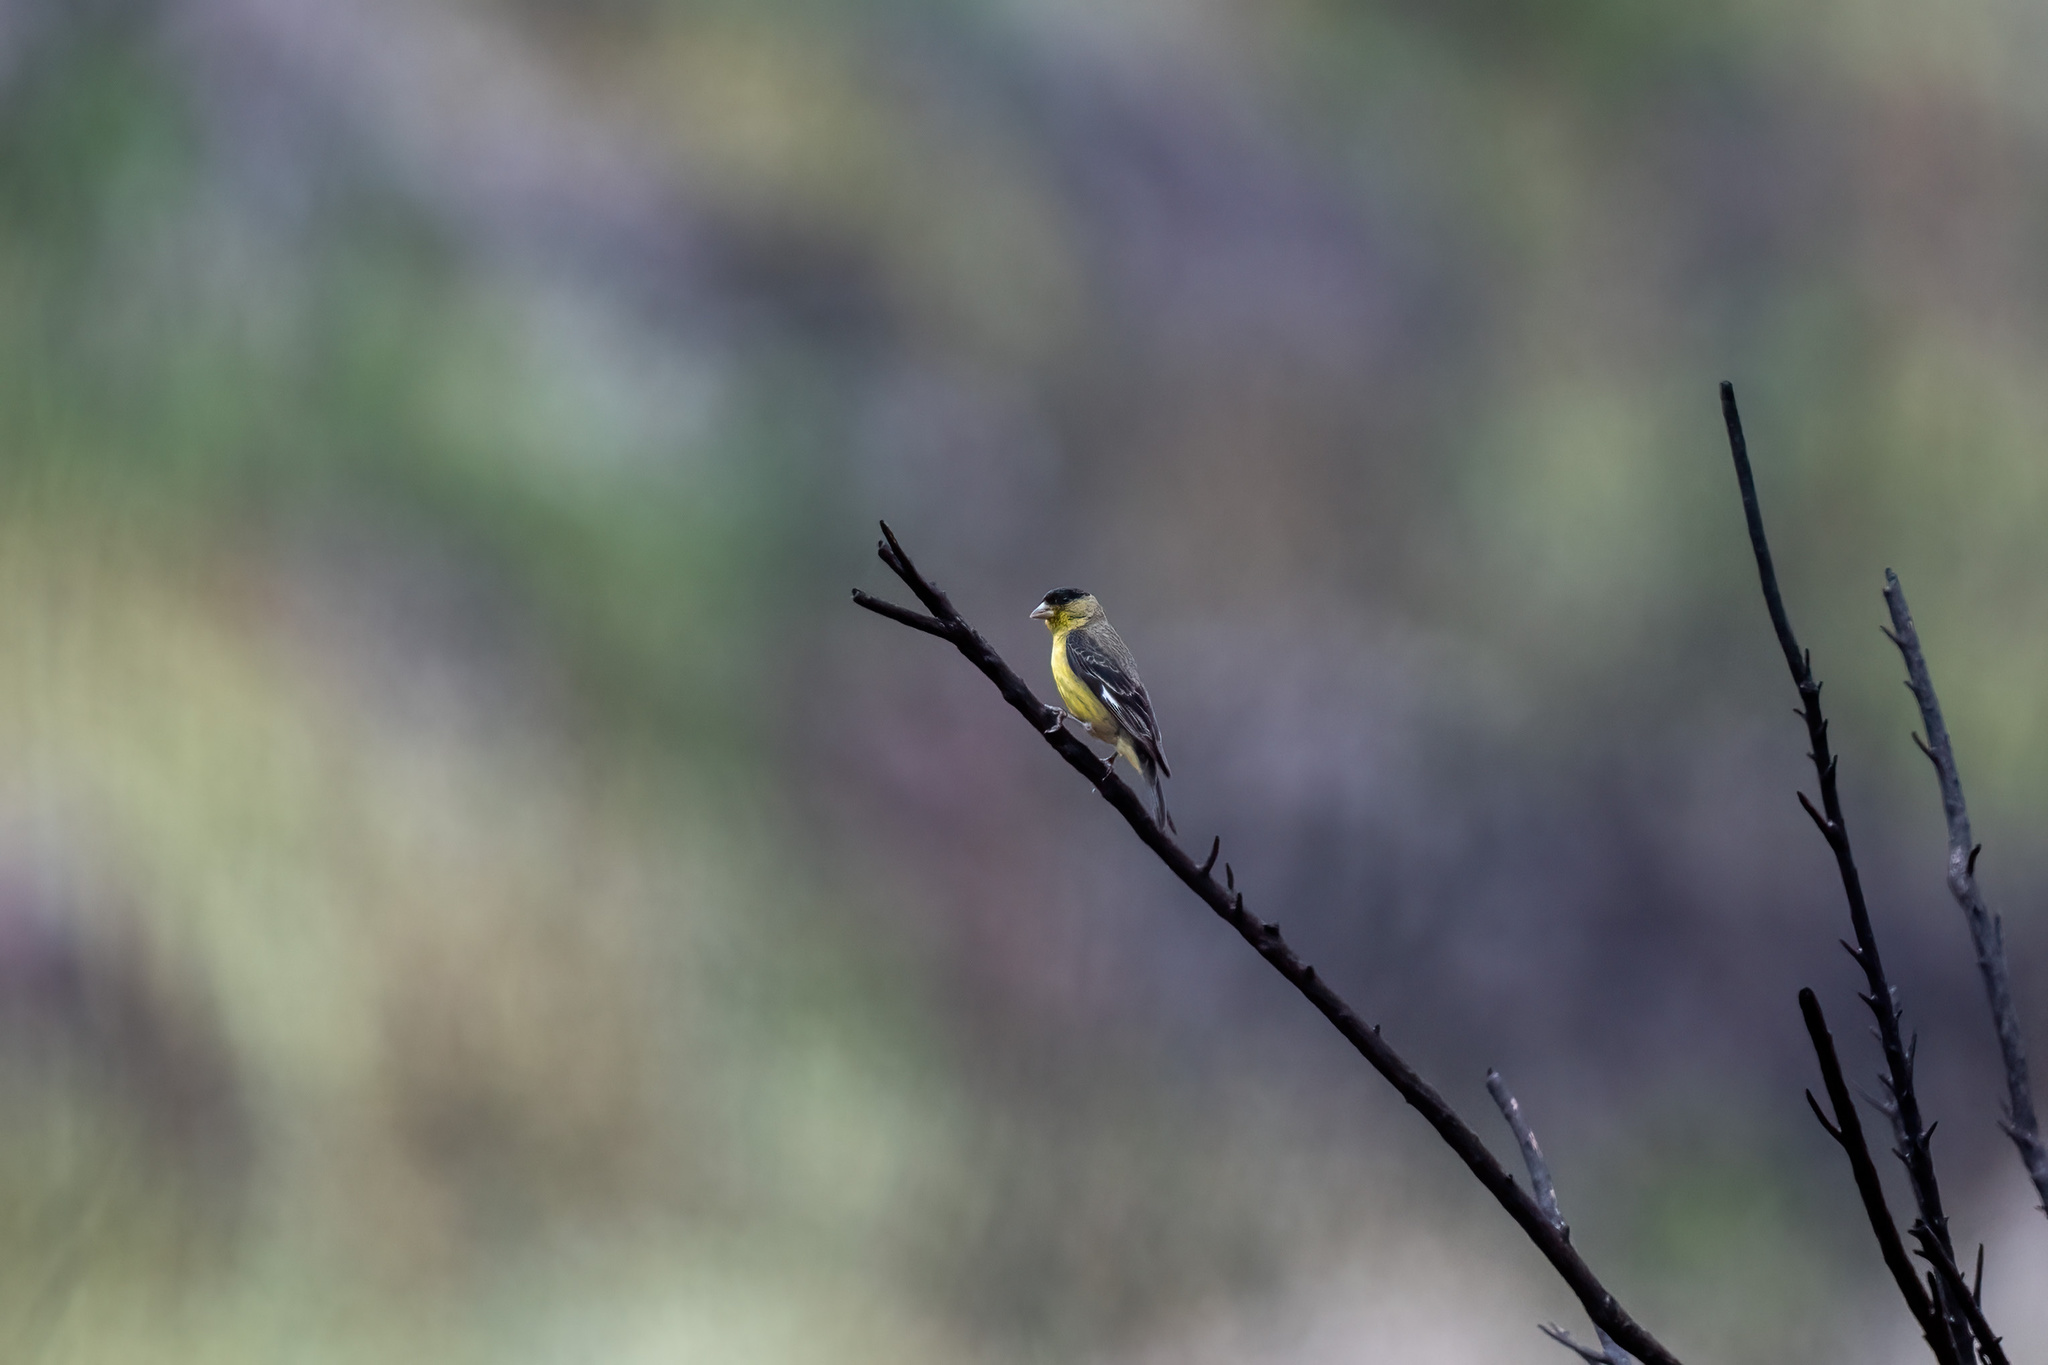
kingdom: Animalia
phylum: Chordata
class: Aves
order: Passeriformes
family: Fringillidae
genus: Spinus
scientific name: Spinus psaltria
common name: Lesser goldfinch
